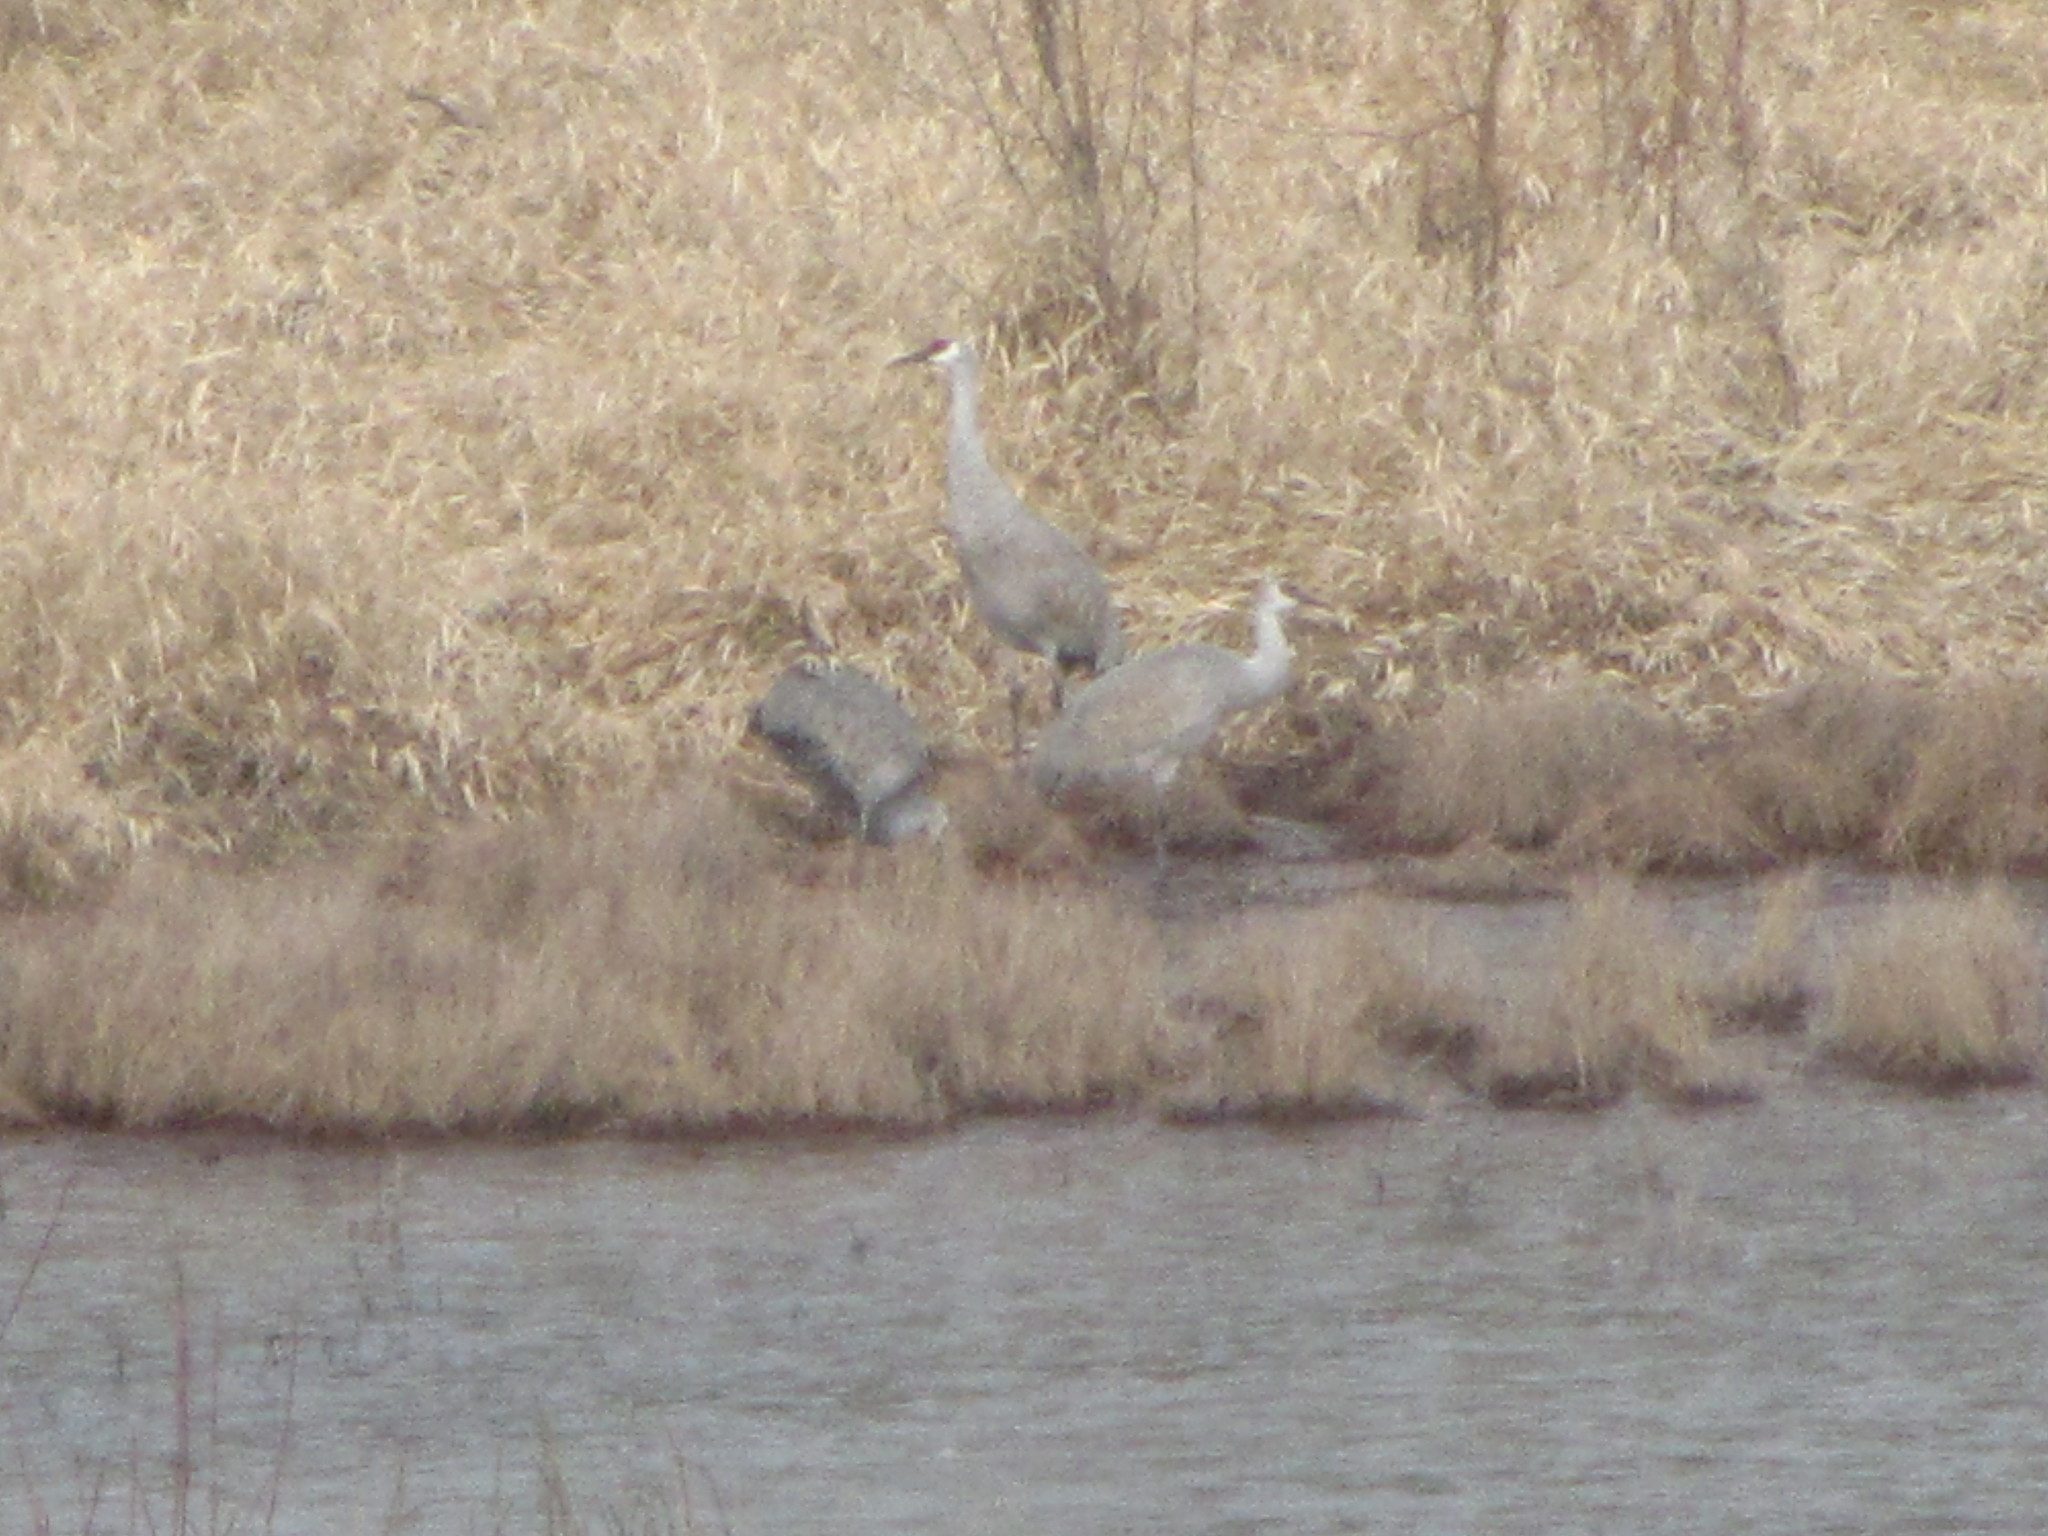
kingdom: Animalia
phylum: Chordata
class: Aves
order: Gruiformes
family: Gruidae
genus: Grus
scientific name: Grus canadensis
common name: Sandhill crane
